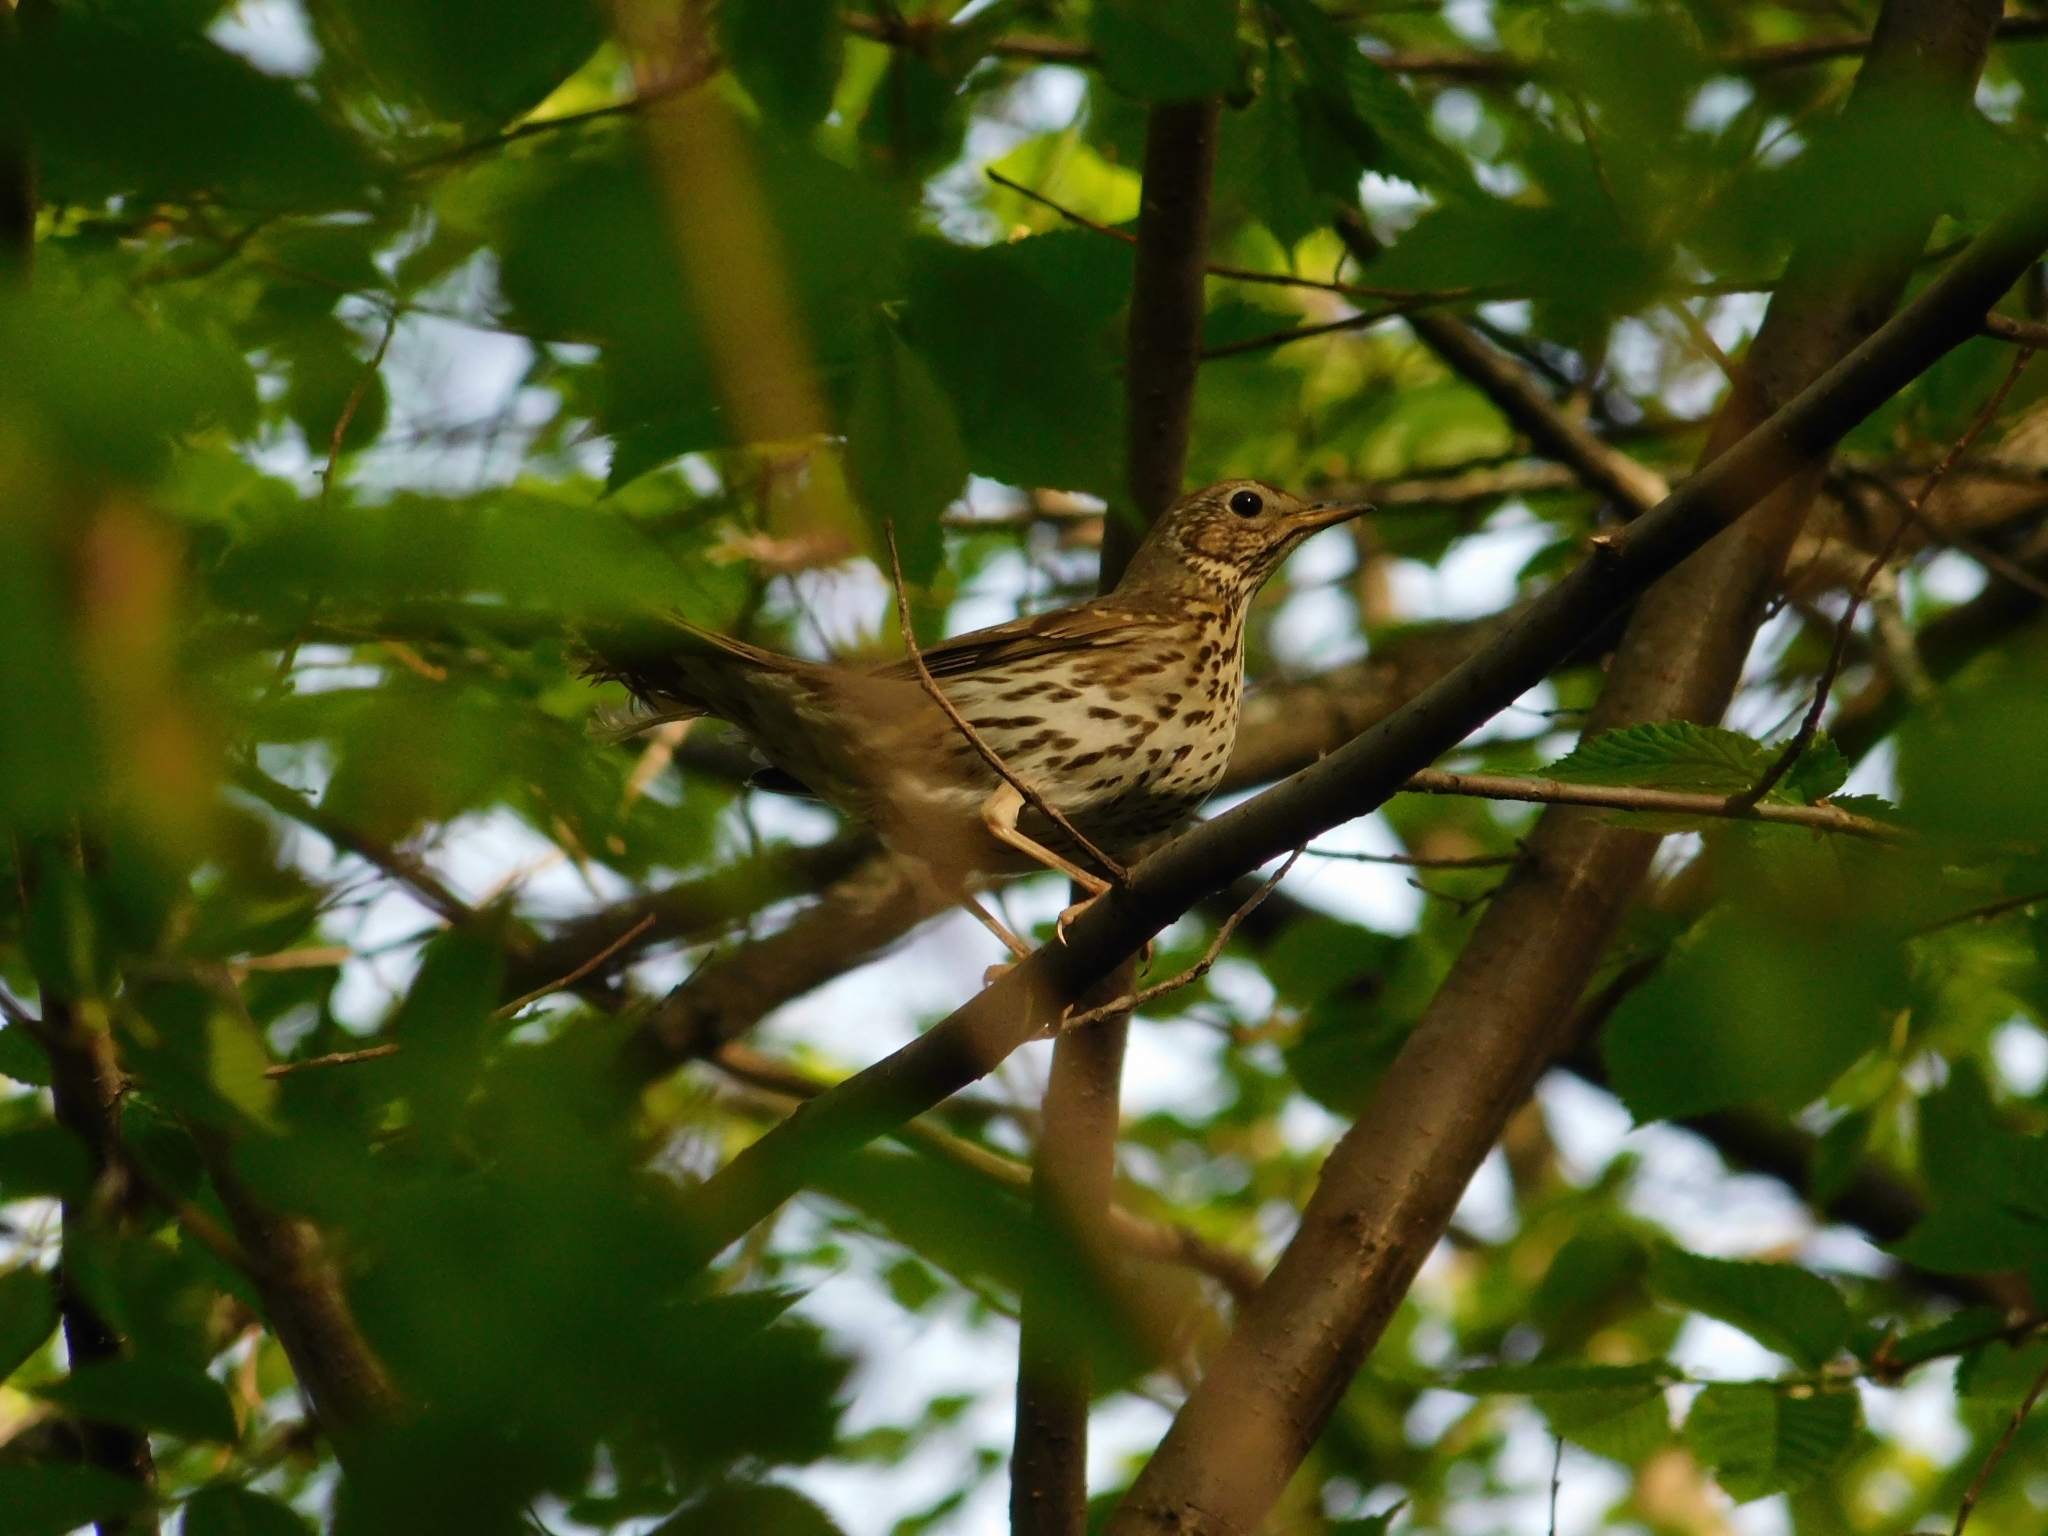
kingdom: Animalia
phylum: Chordata
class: Aves
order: Passeriformes
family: Turdidae
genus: Turdus
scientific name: Turdus philomelos
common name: Song thrush
